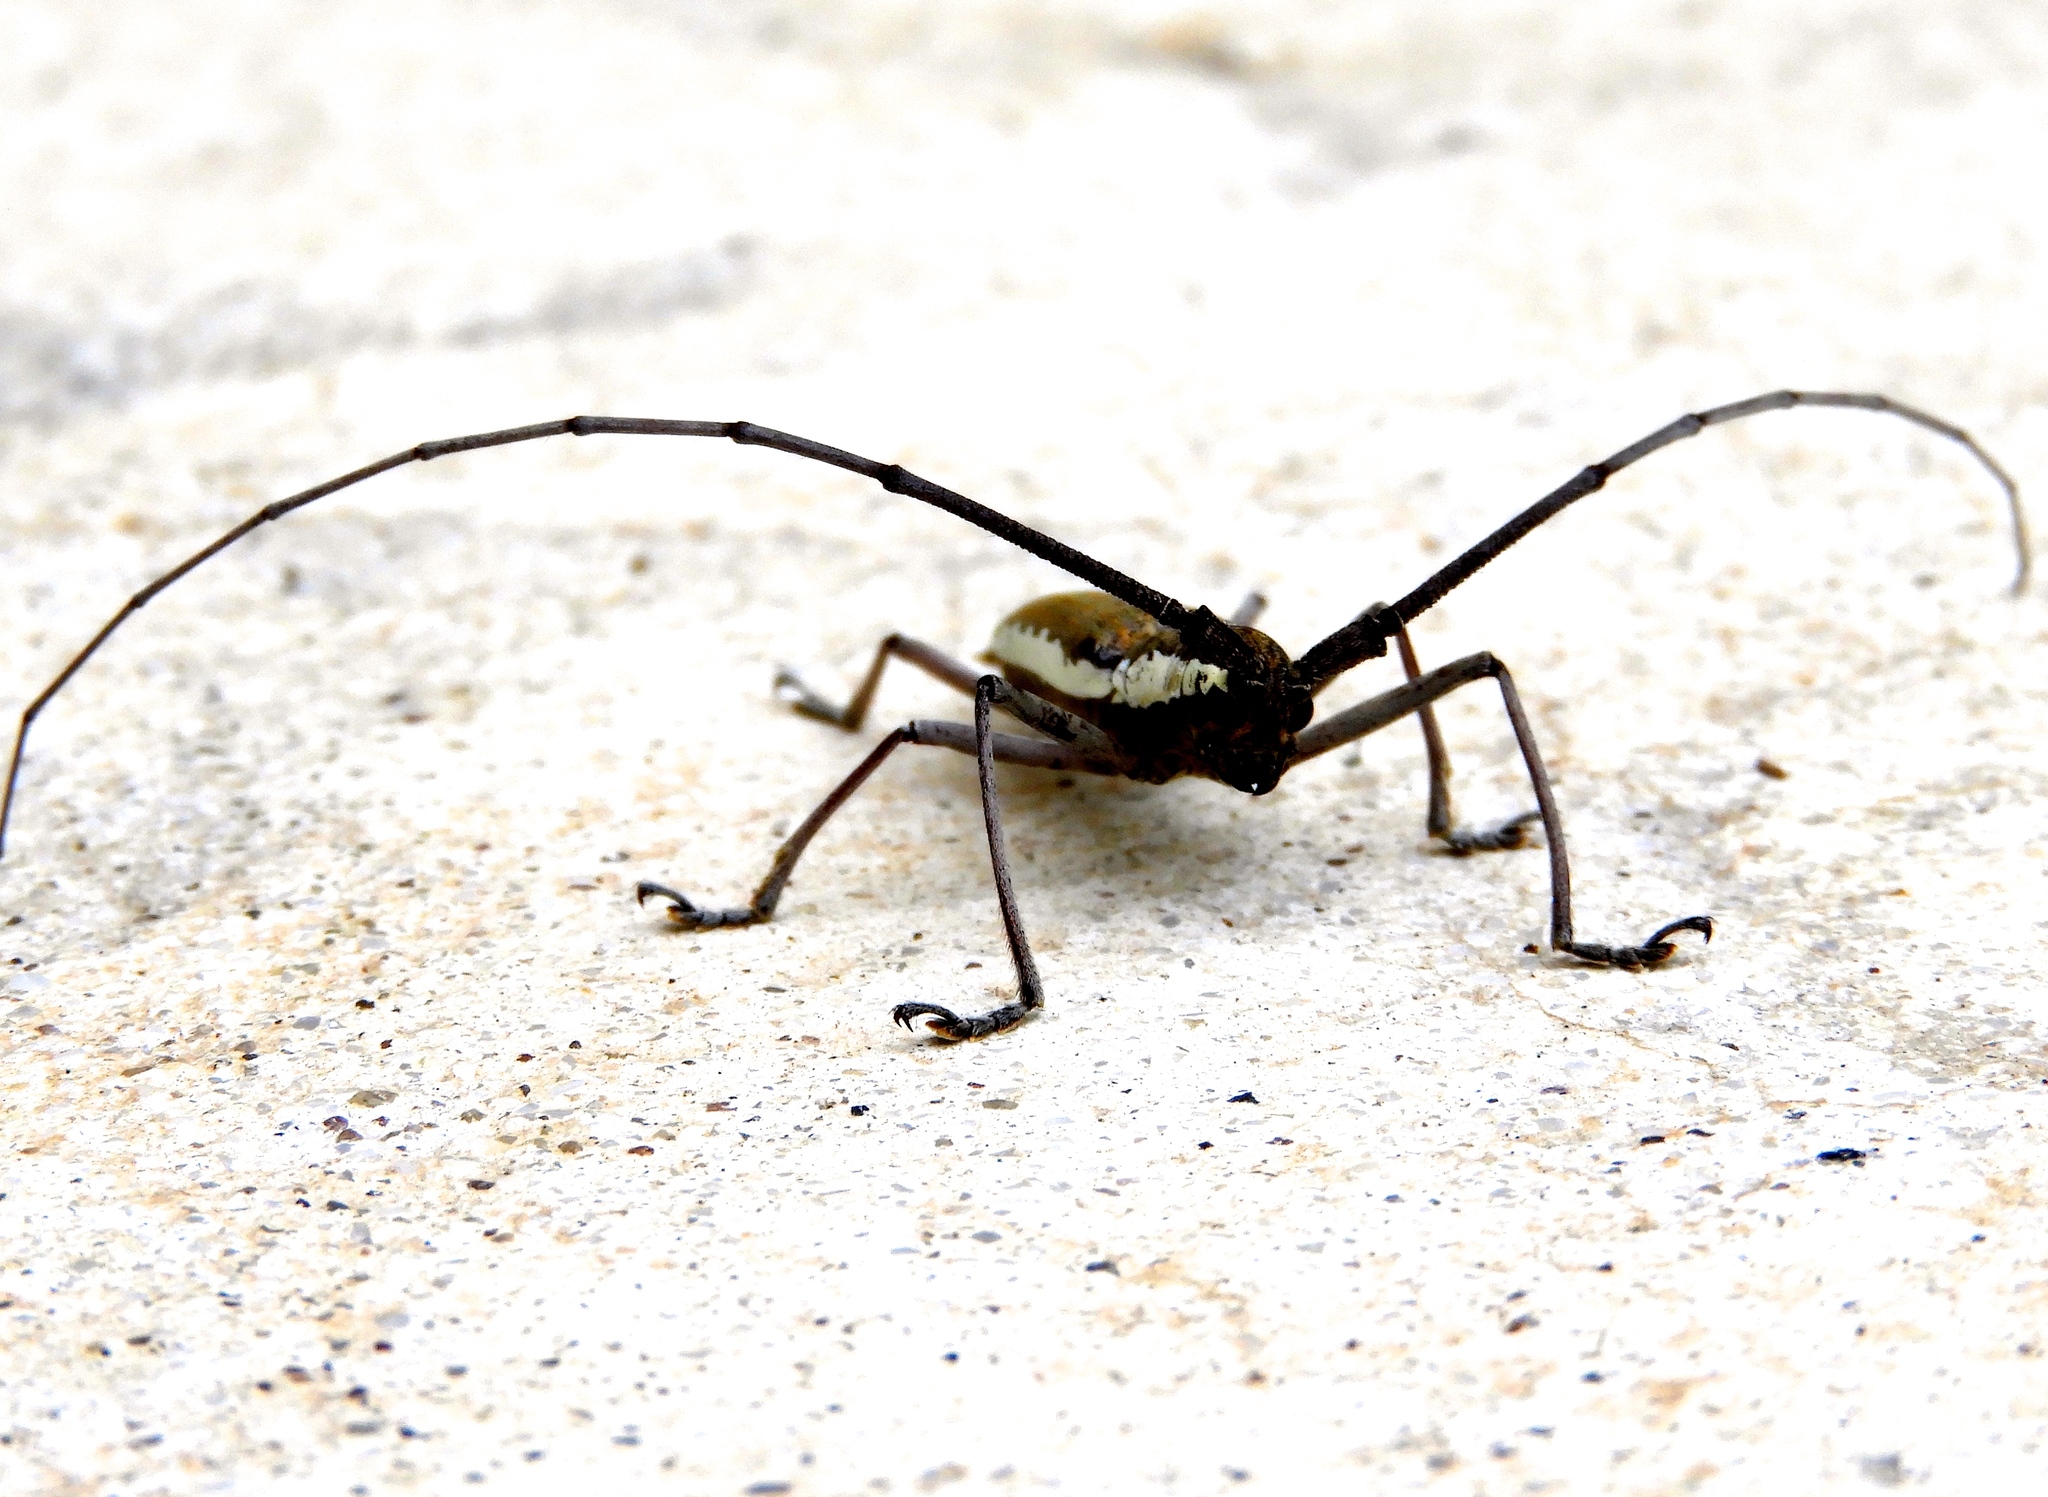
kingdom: Animalia
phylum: Arthropoda
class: Insecta
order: Coleoptera
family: Cerambycidae
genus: Neoptychodes
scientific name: Neoptychodes trilineatus
